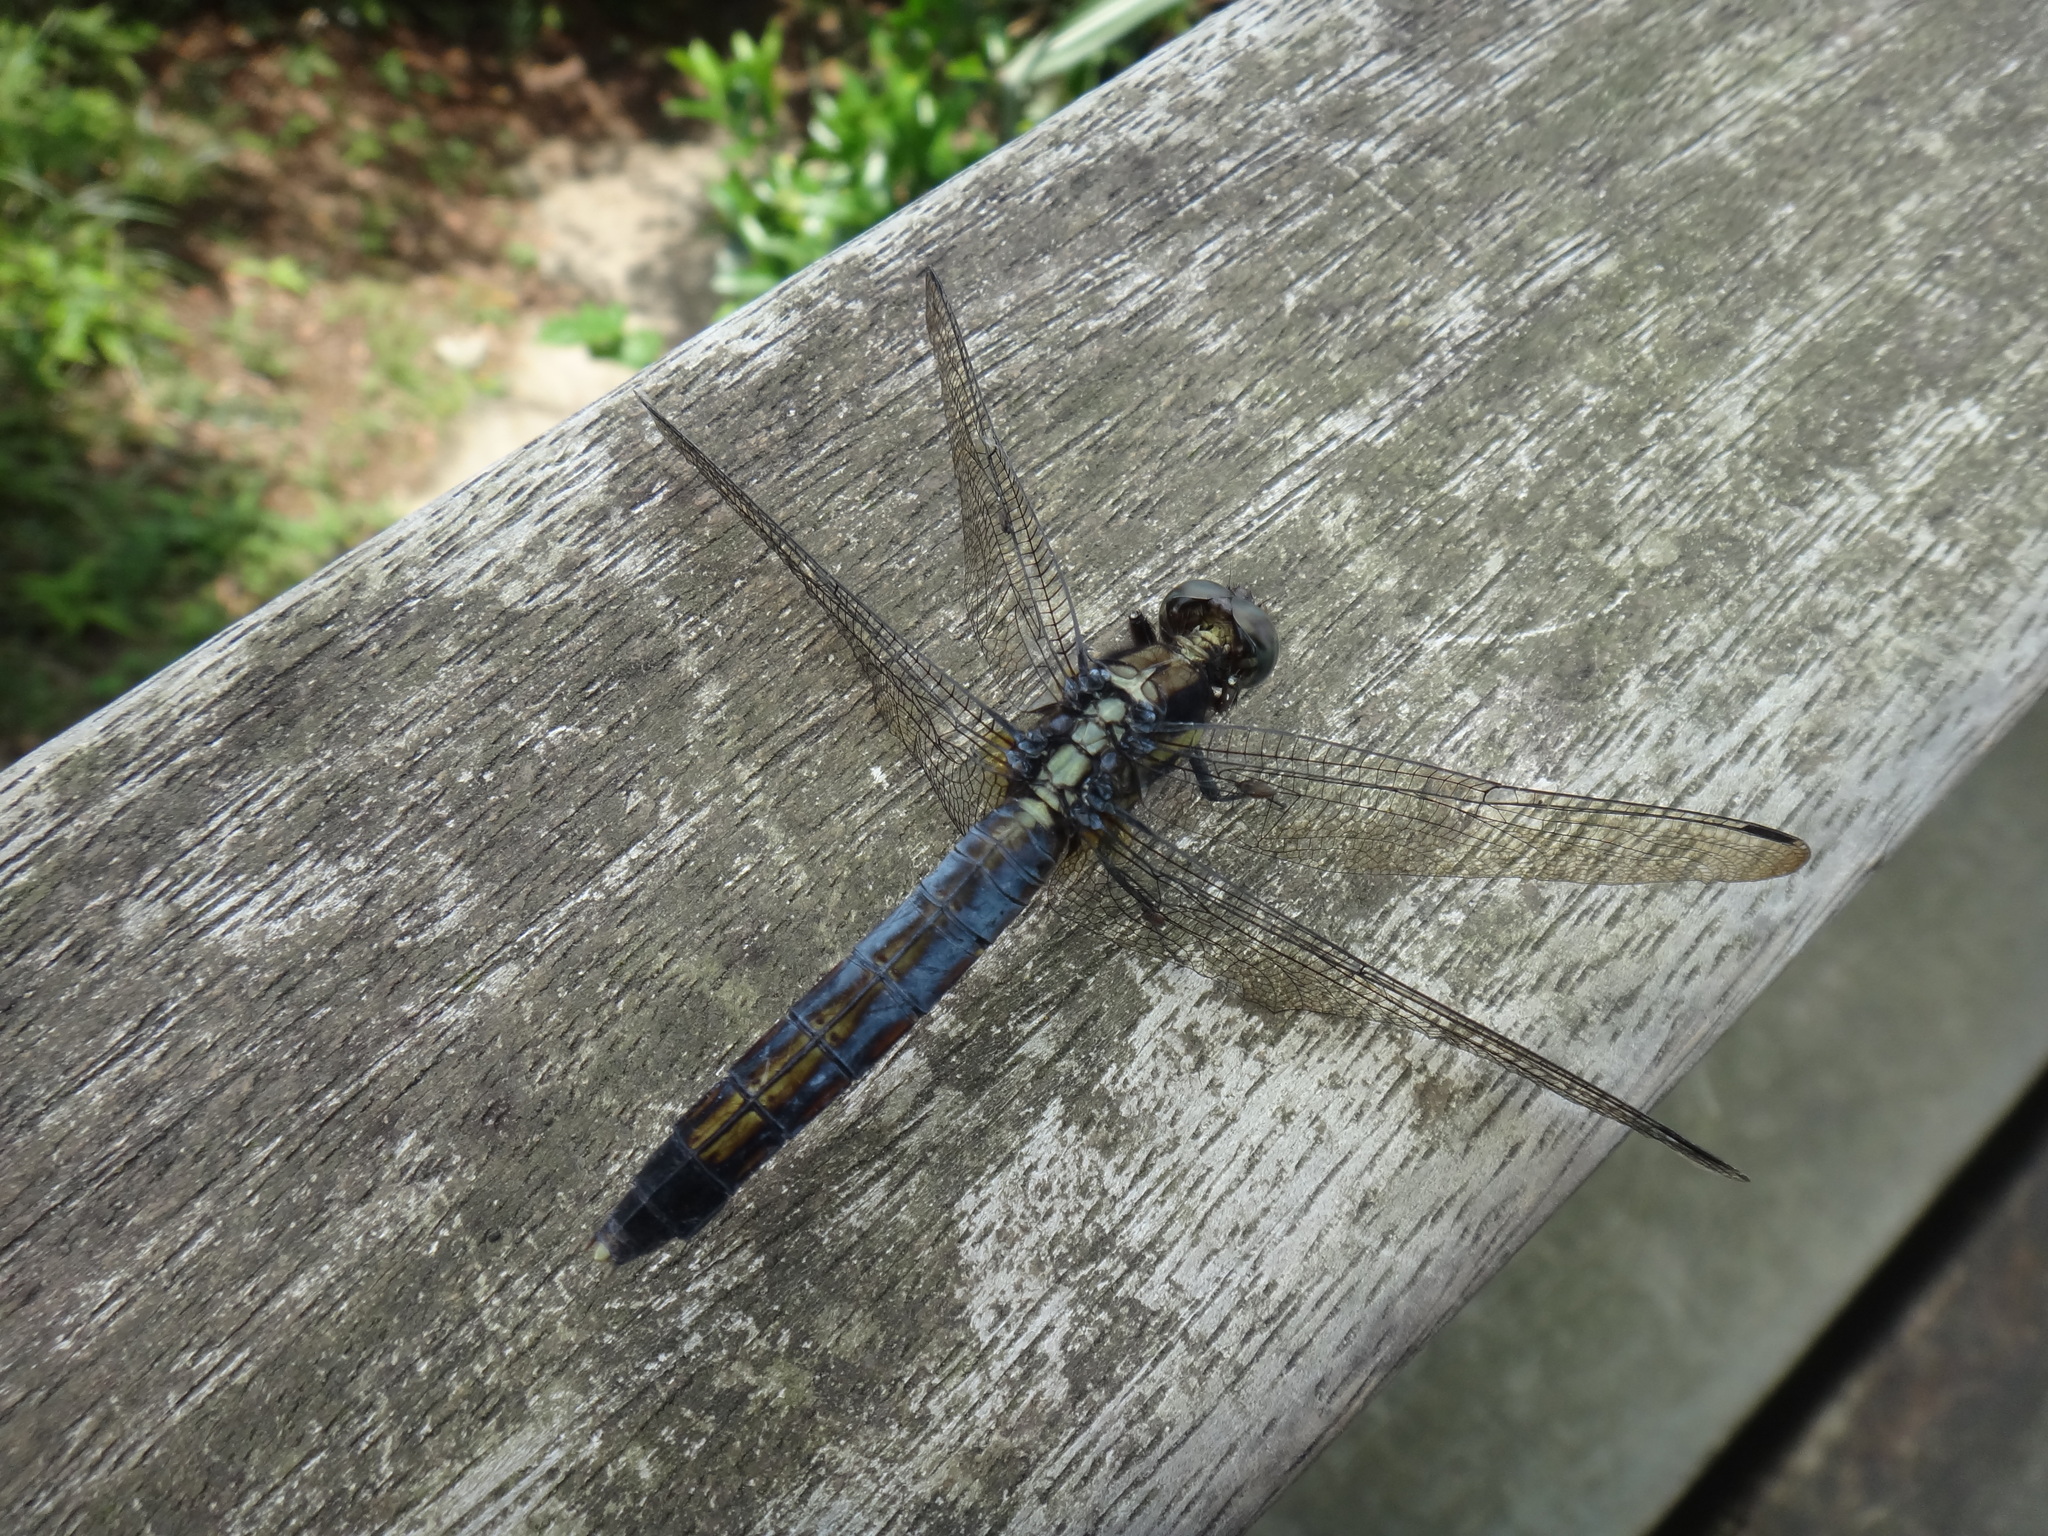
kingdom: Animalia
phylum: Arthropoda
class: Insecta
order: Odonata
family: Libellulidae
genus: Orthetrum
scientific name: Orthetrum triangulare
